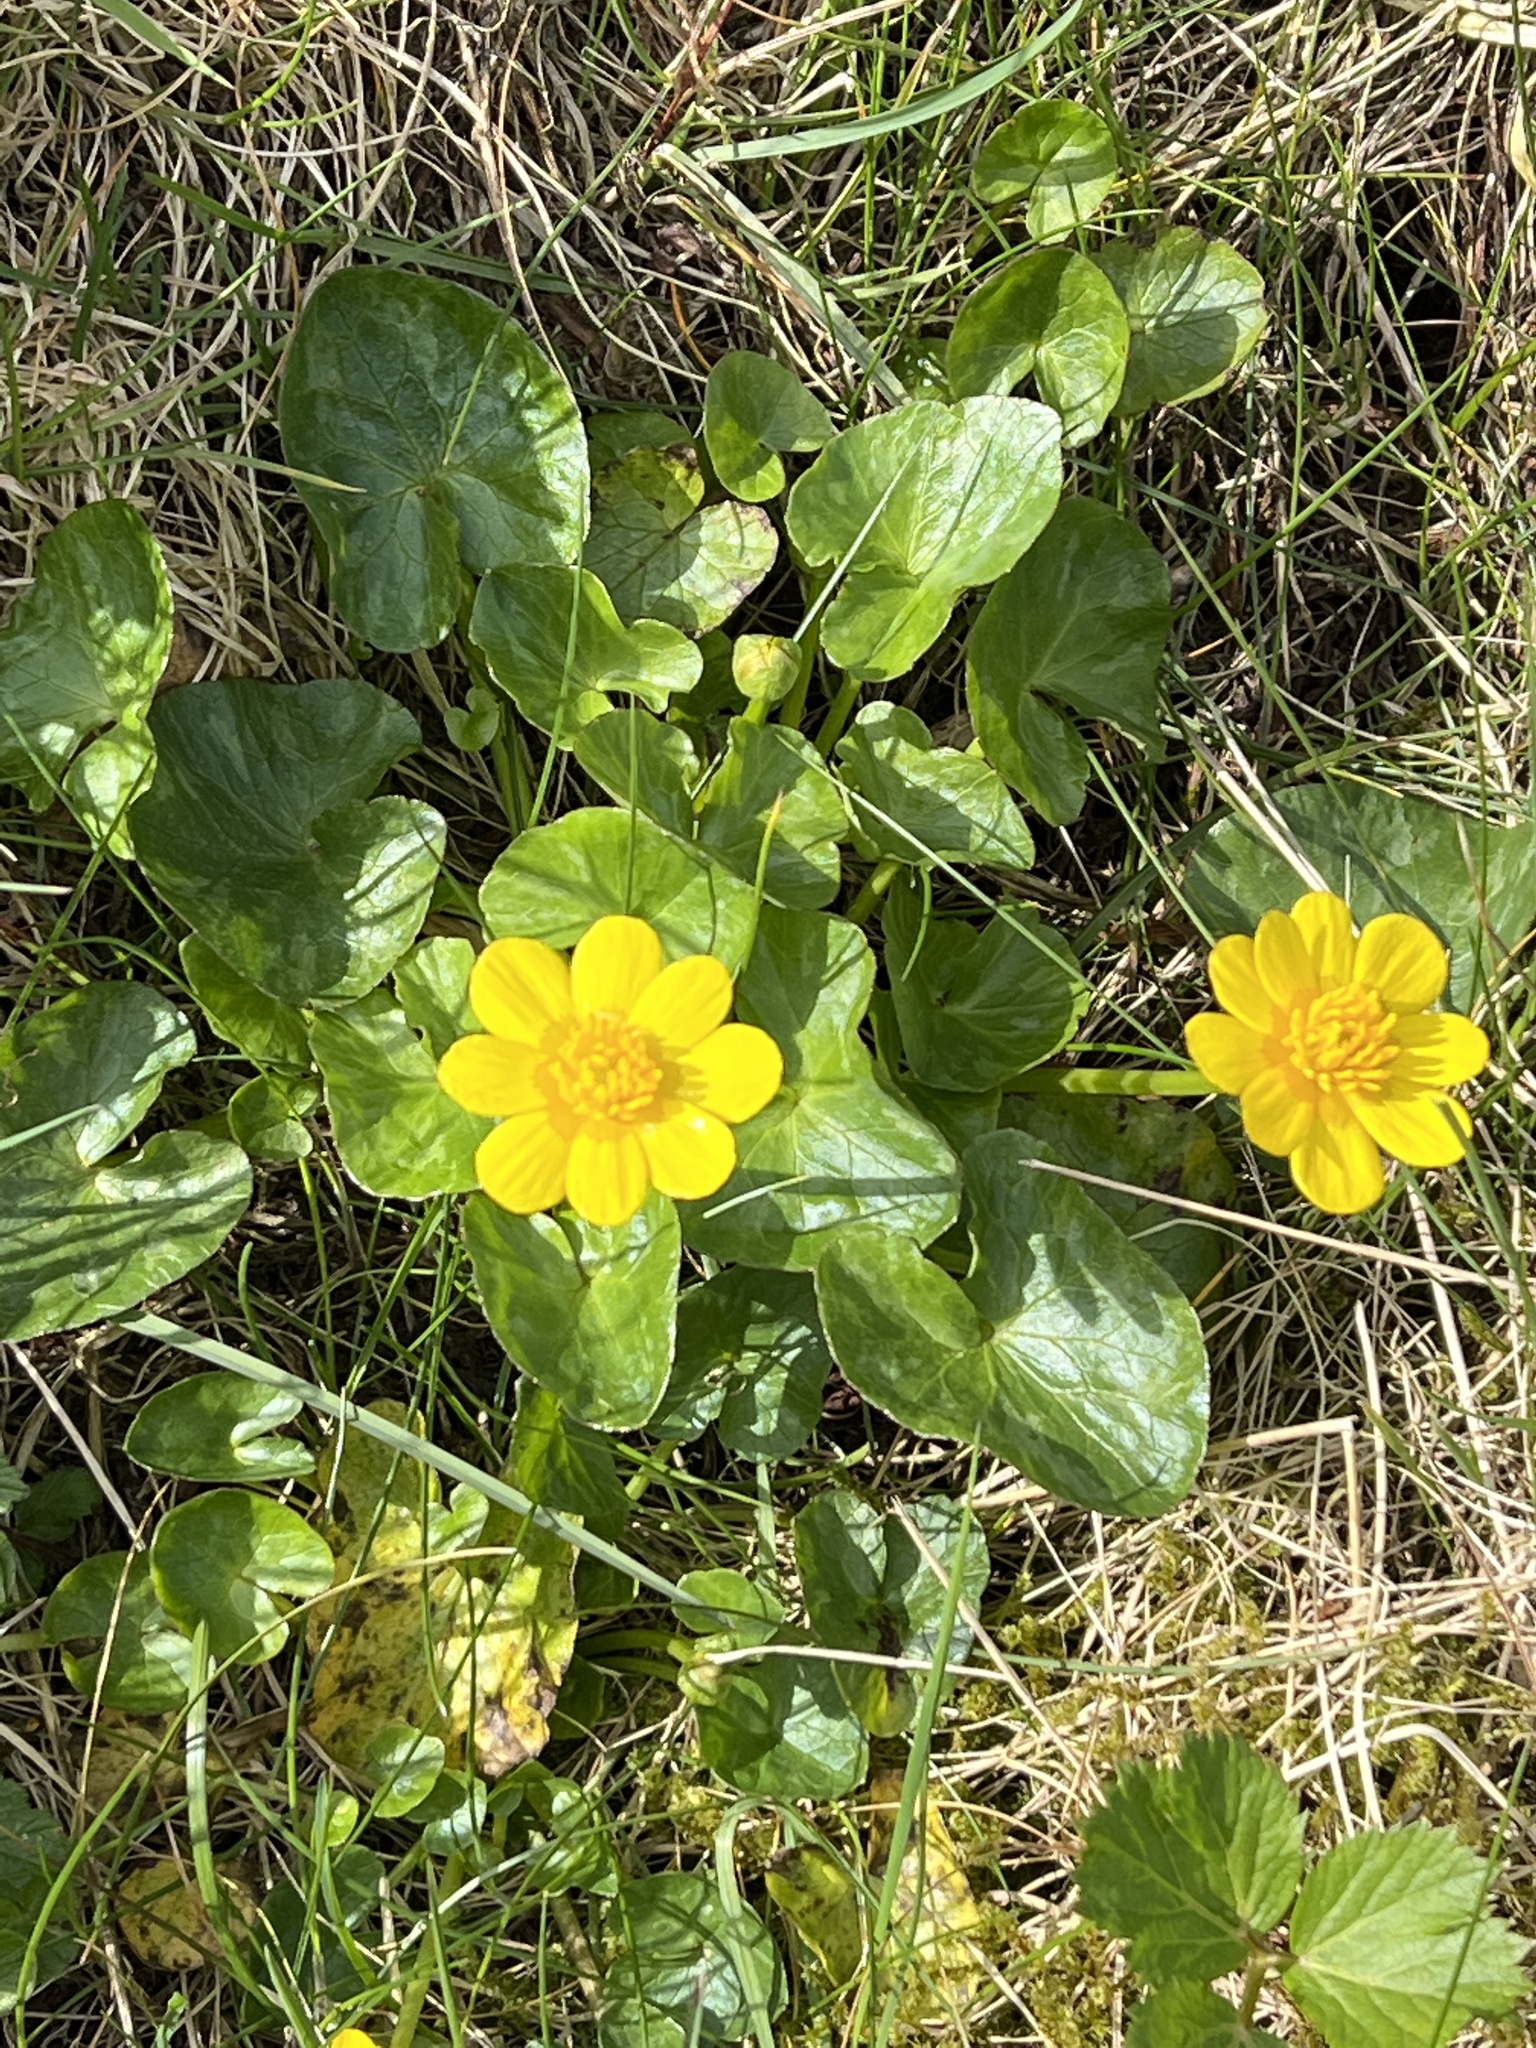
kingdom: Plantae
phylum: Tracheophyta
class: Magnoliopsida
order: Ranunculales
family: Ranunculaceae
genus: Caltha
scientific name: Caltha palustris
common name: Marsh marigold
